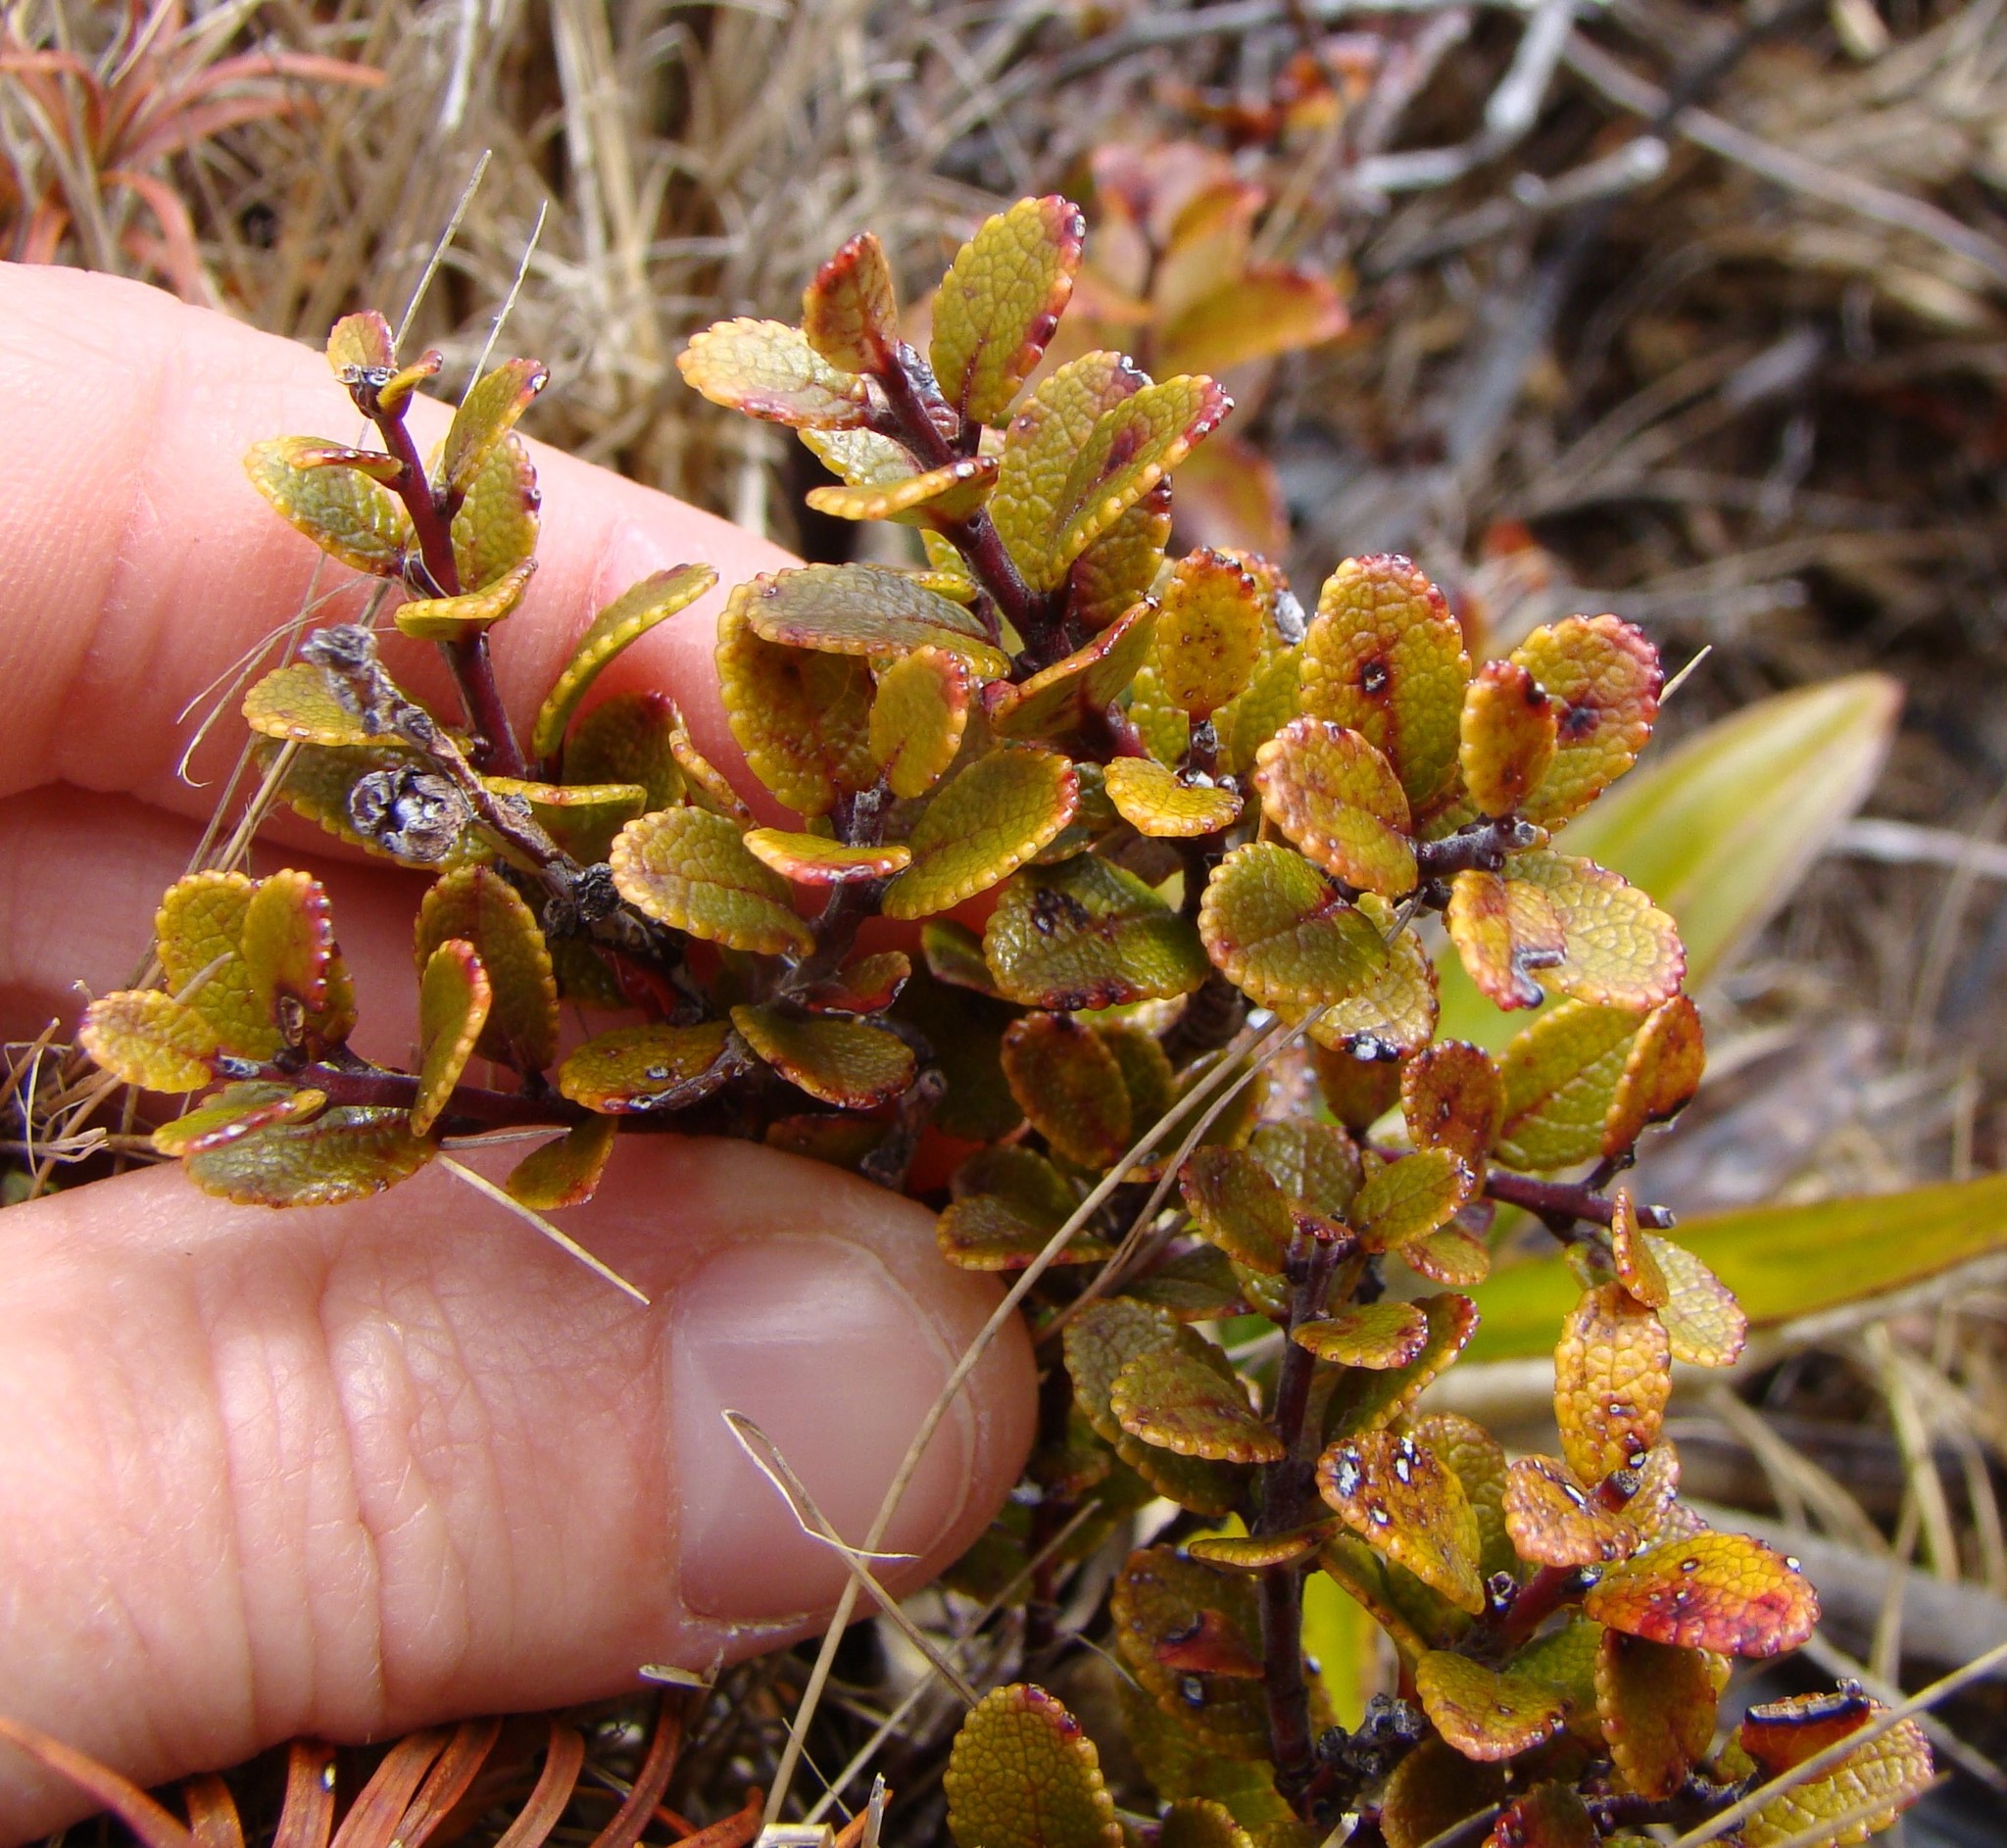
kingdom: Plantae
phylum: Tracheophyta
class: Magnoliopsida
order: Ericales
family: Ericaceae
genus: Gaultheria
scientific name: Gaultheria colensoi
